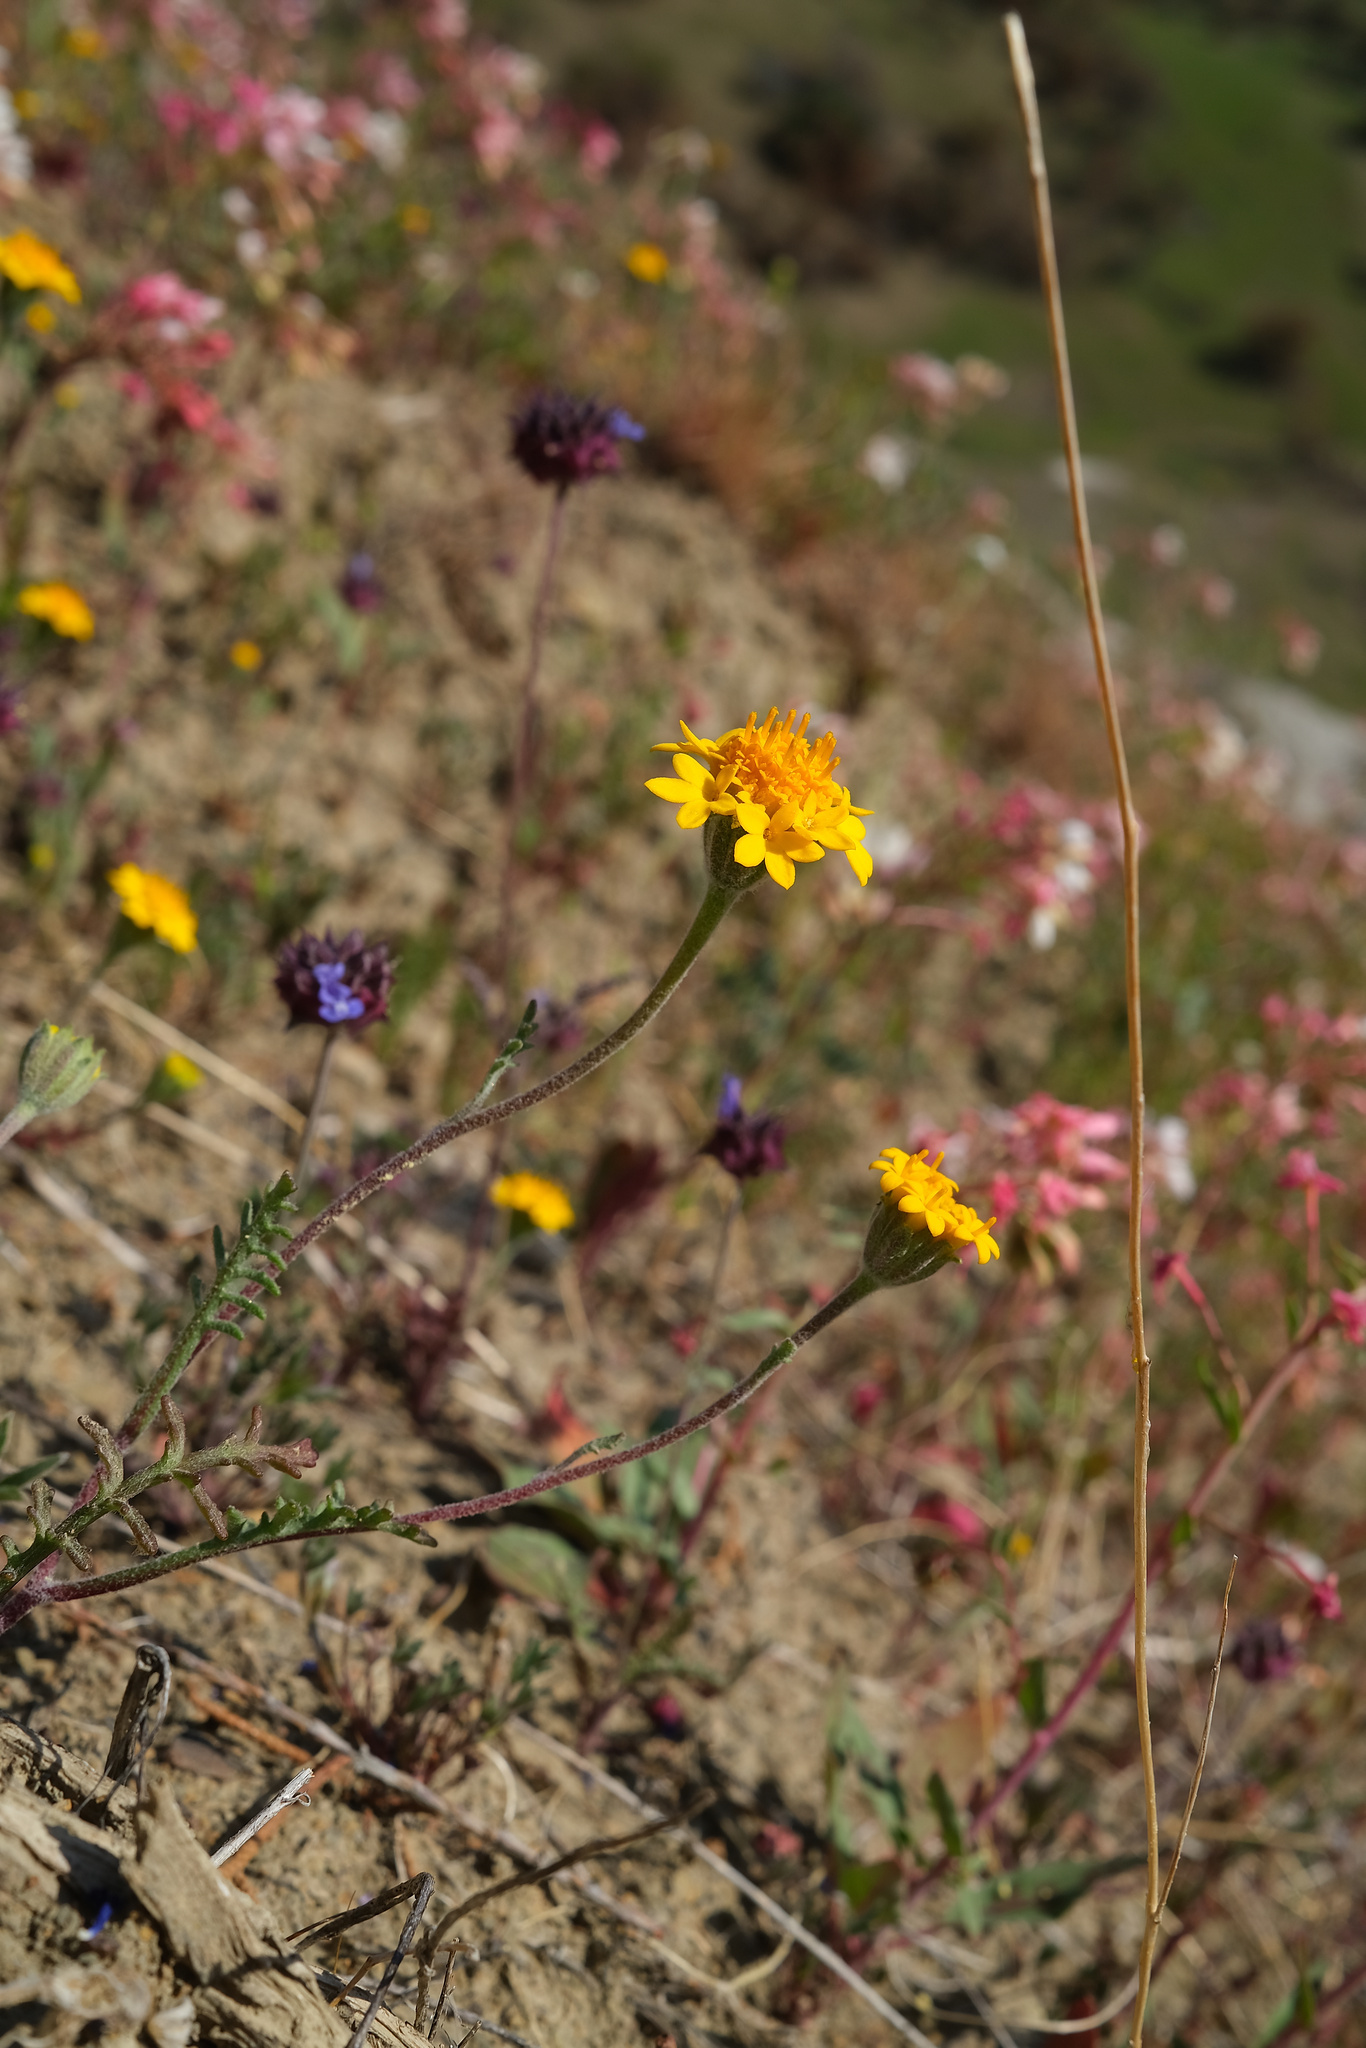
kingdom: Plantae
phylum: Tracheophyta
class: Magnoliopsida
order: Asterales
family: Asteraceae
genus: Chaenactis
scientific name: Chaenactis glabriuscula
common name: Yellow pincushion
